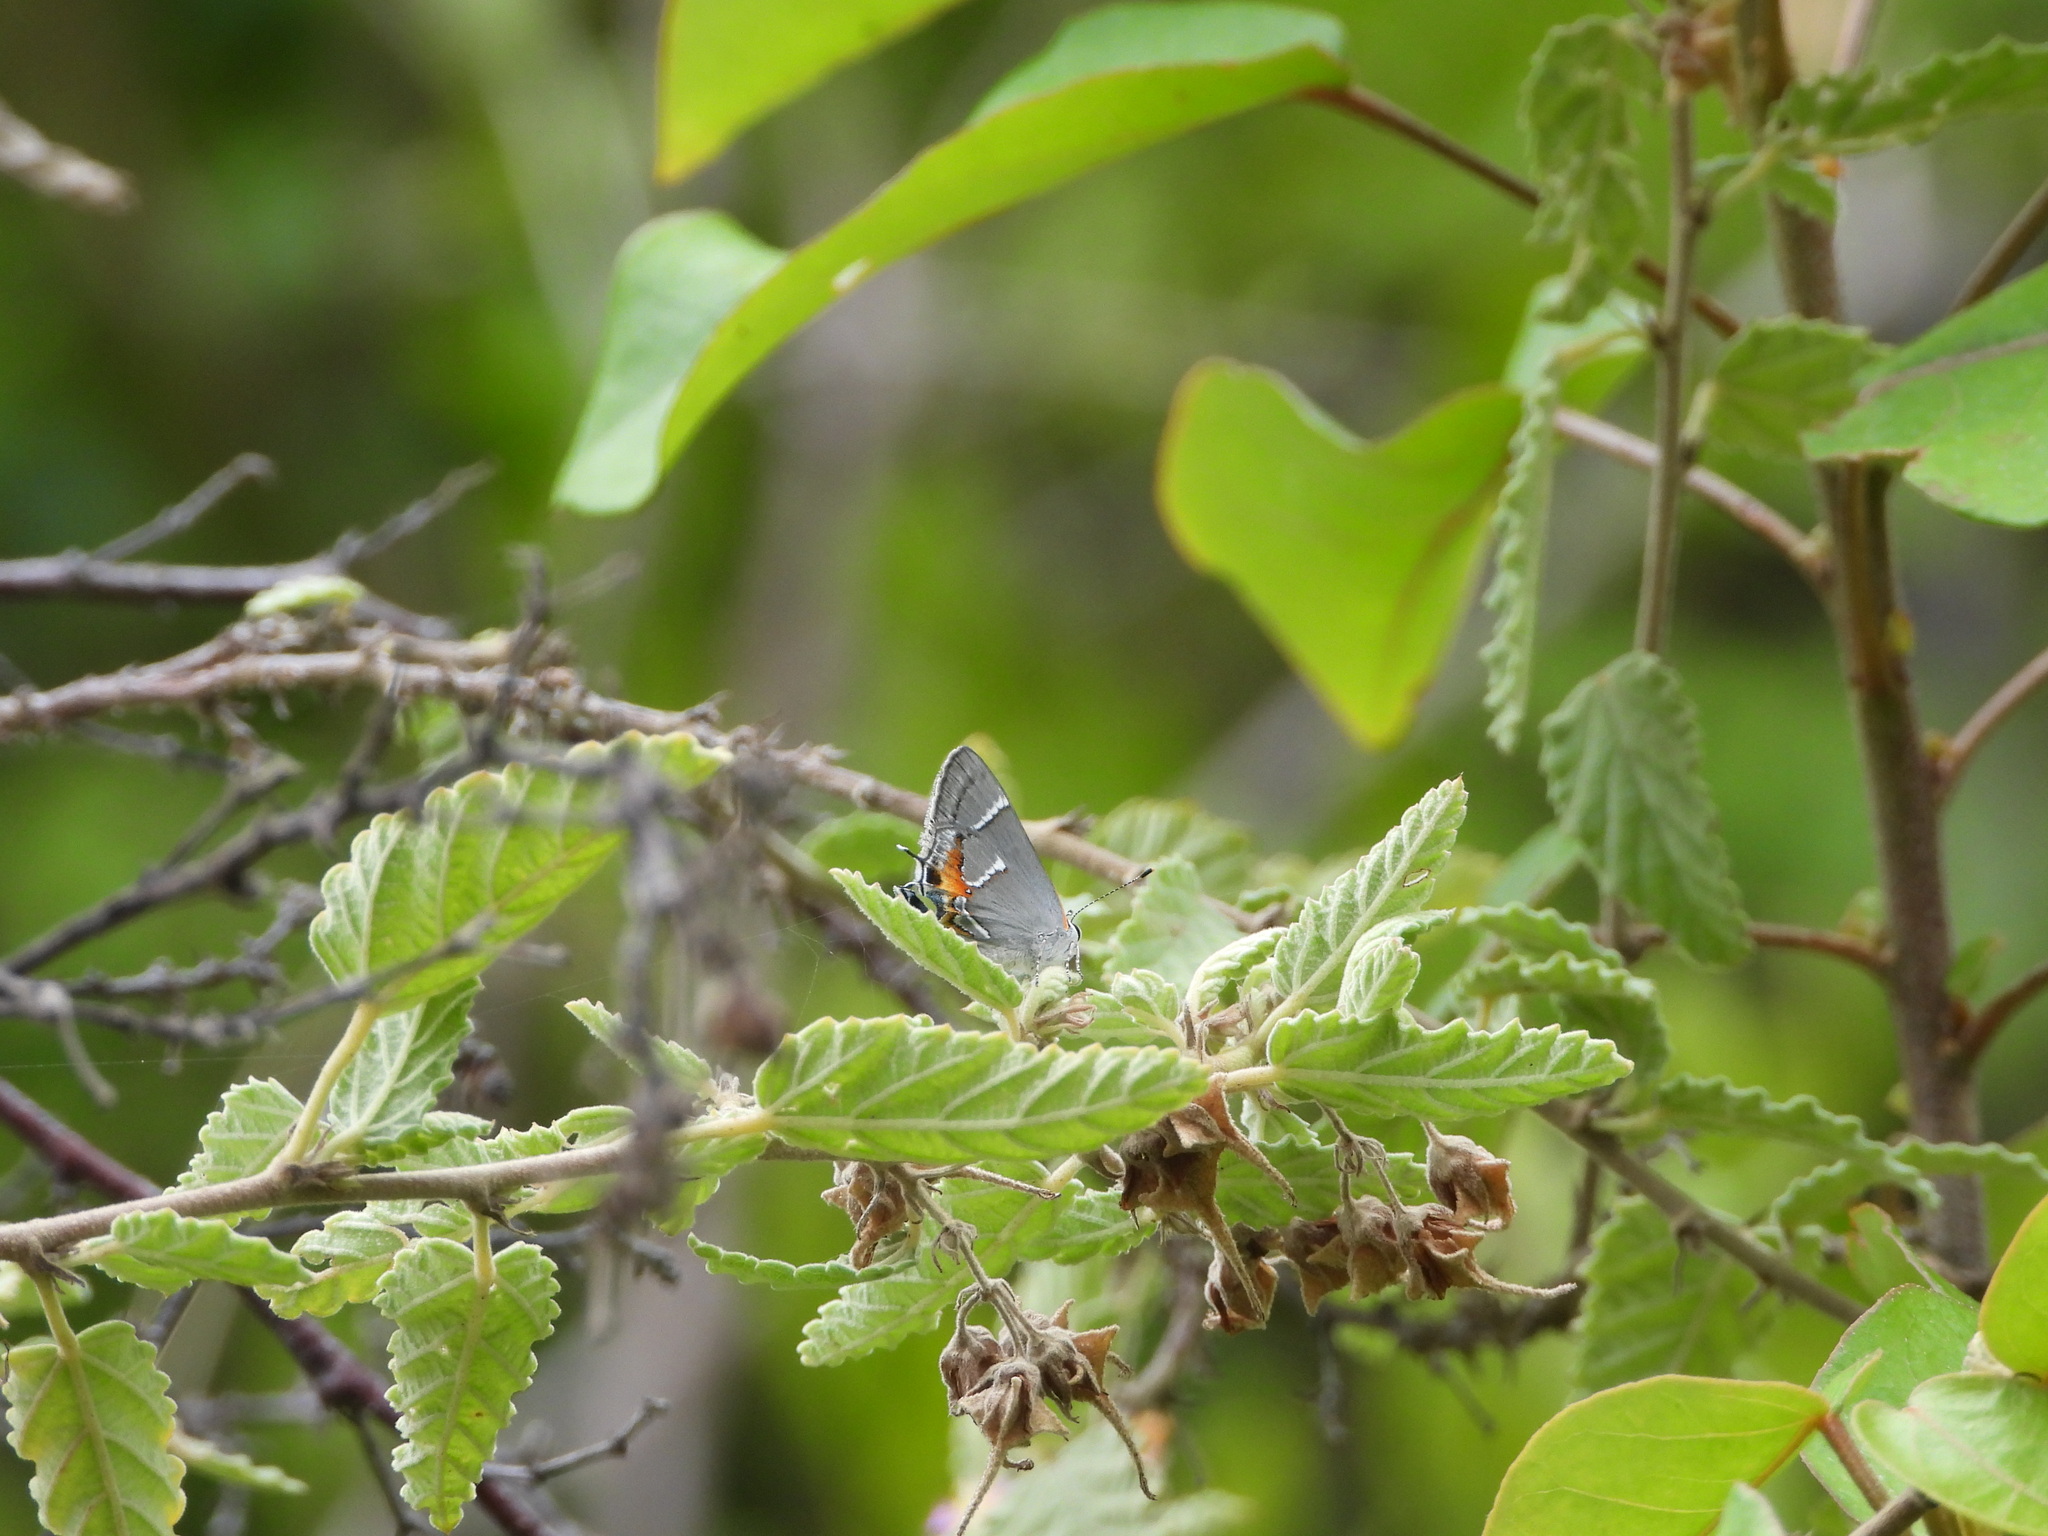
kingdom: Animalia
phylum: Arthropoda
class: Insecta
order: Lepidoptera
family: Lycaenidae
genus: Thecla
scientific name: Thecla martialis
